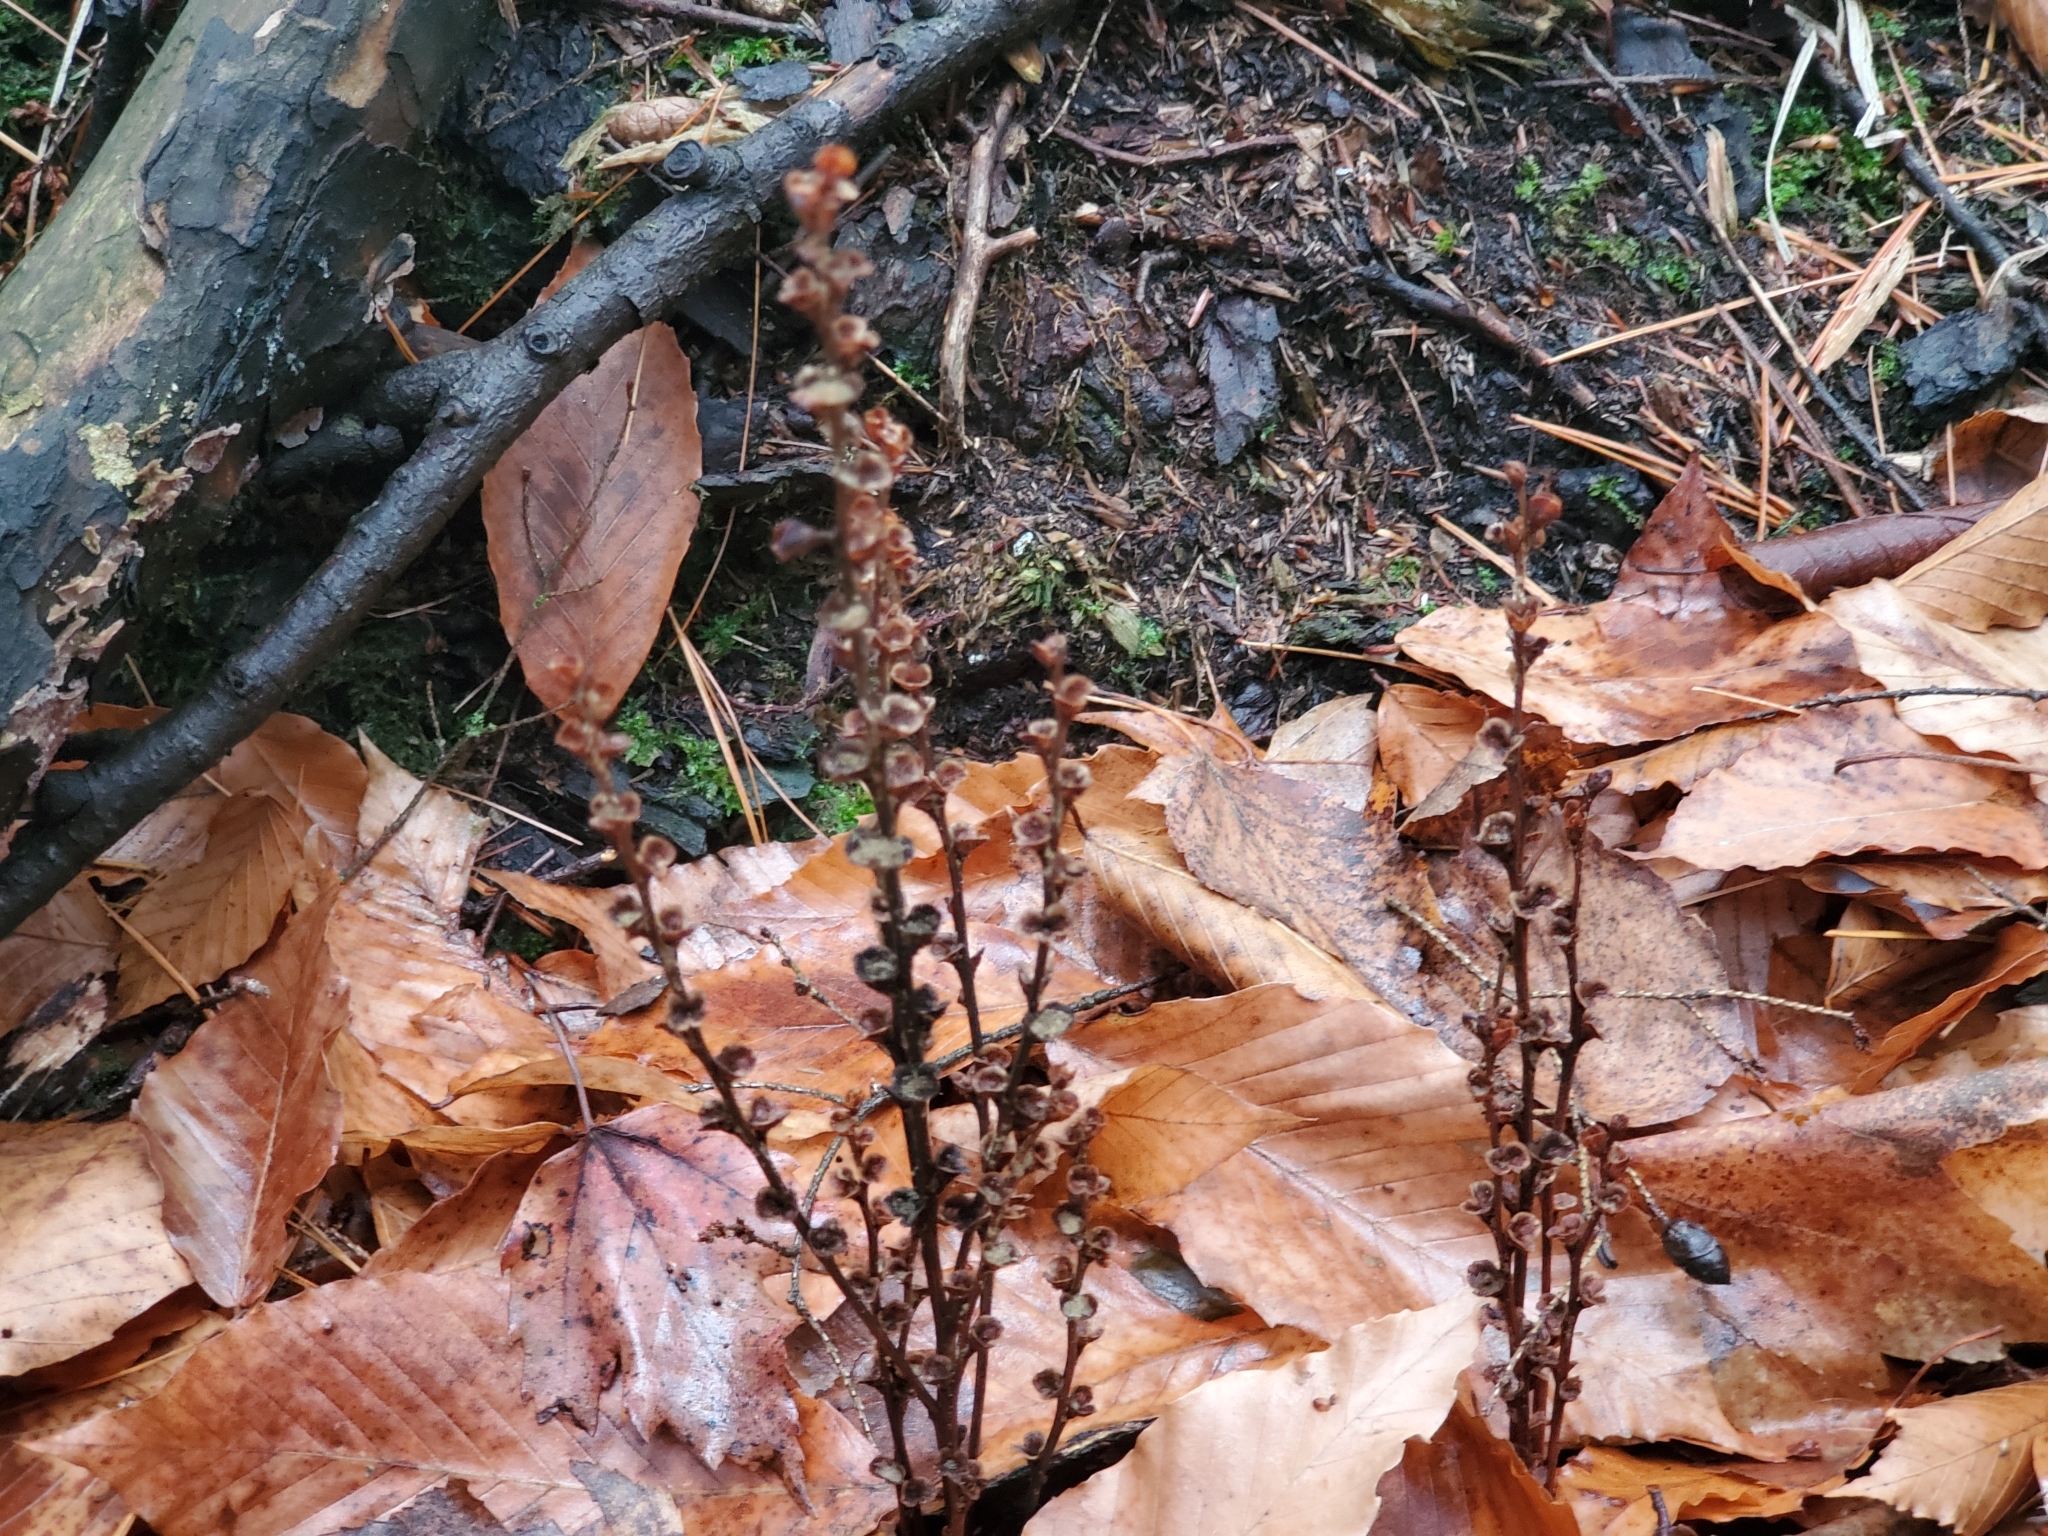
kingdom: Plantae
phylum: Tracheophyta
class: Magnoliopsida
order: Lamiales
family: Orobanchaceae
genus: Epifagus
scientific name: Epifagus virginiana
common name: Beechdrops
